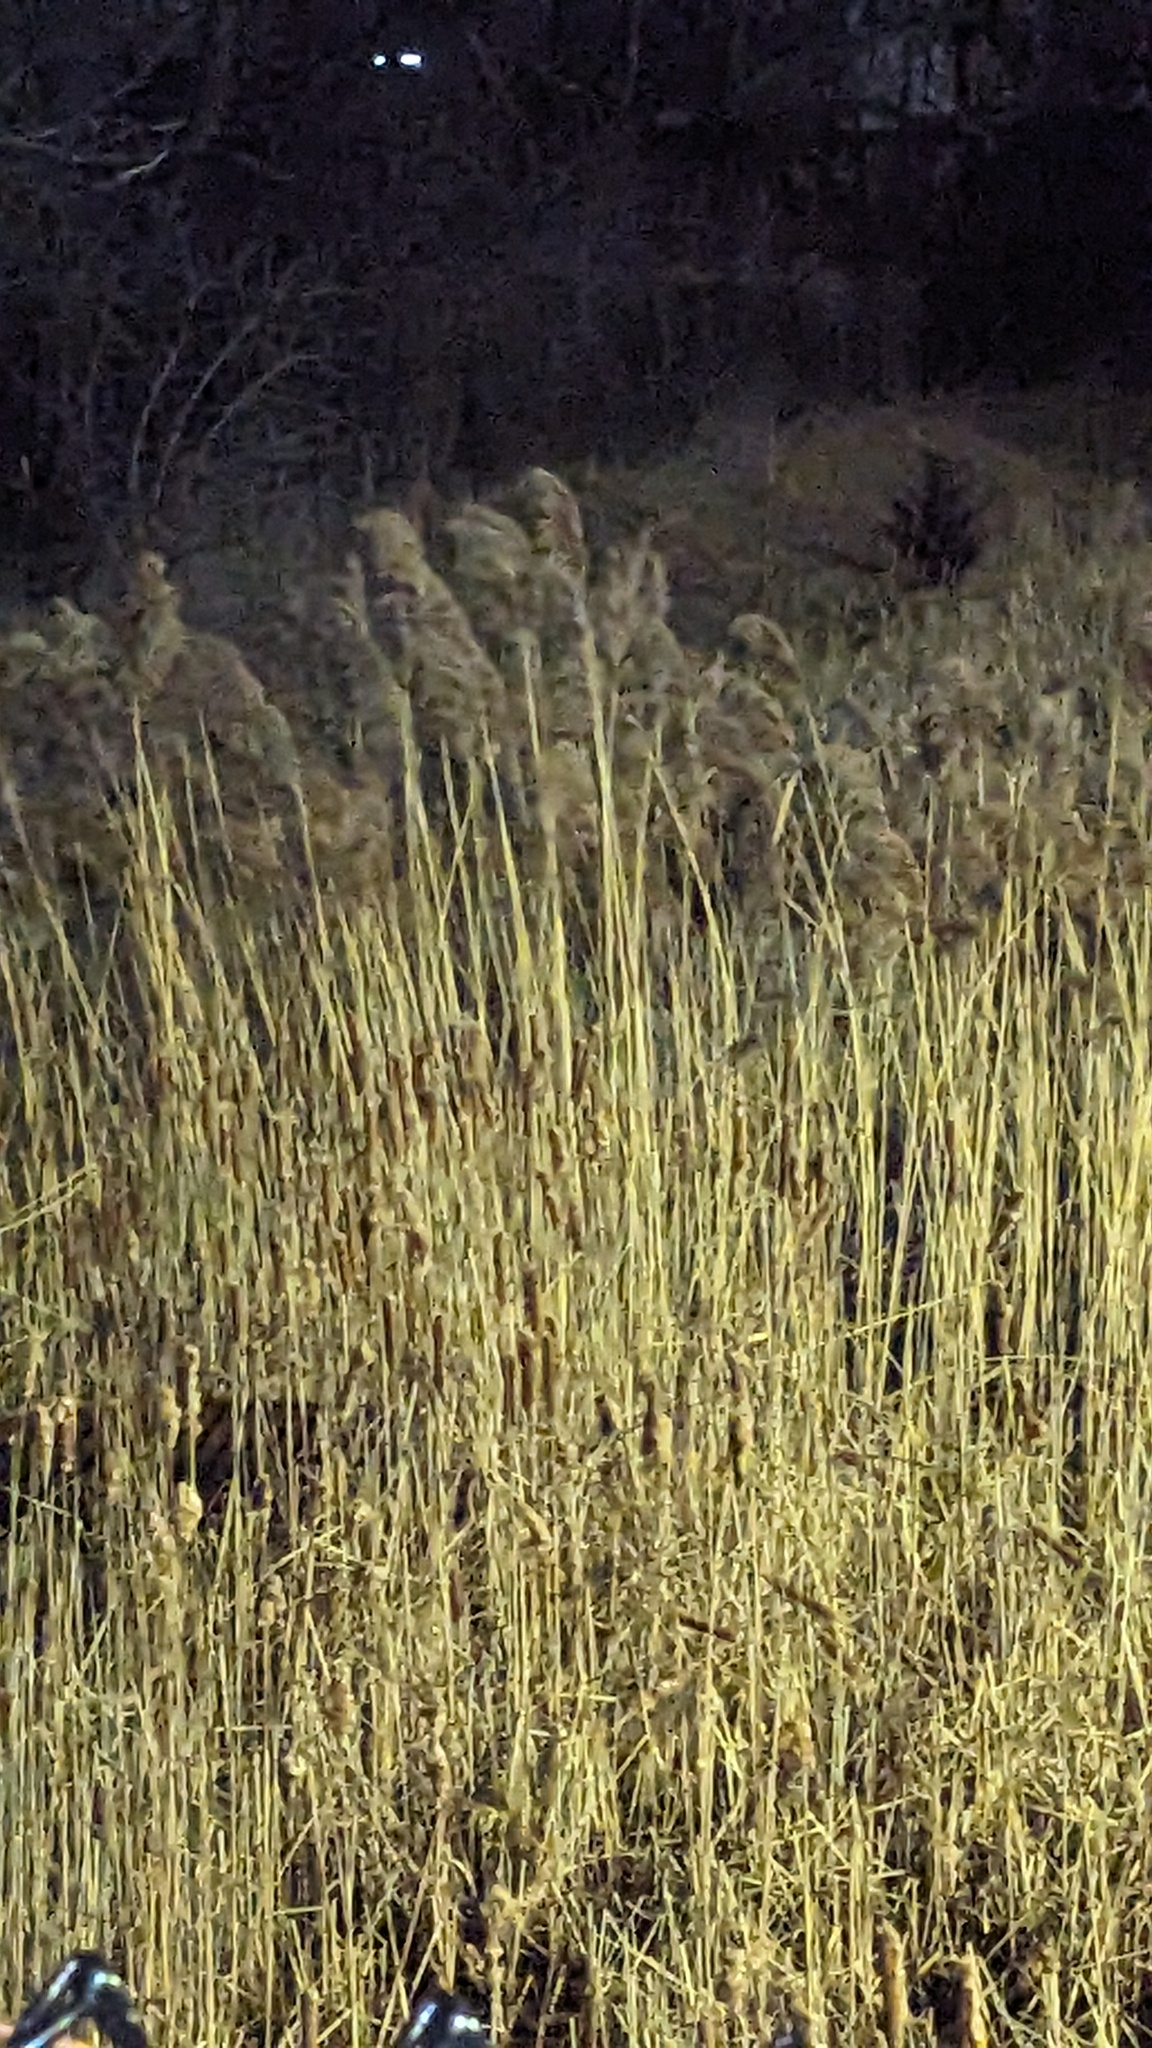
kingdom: Plantae
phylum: Tracheophyta
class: Liliopsida
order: Poales
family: Poaceae
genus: Phragmites
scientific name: Phragmites australis
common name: Common reed
